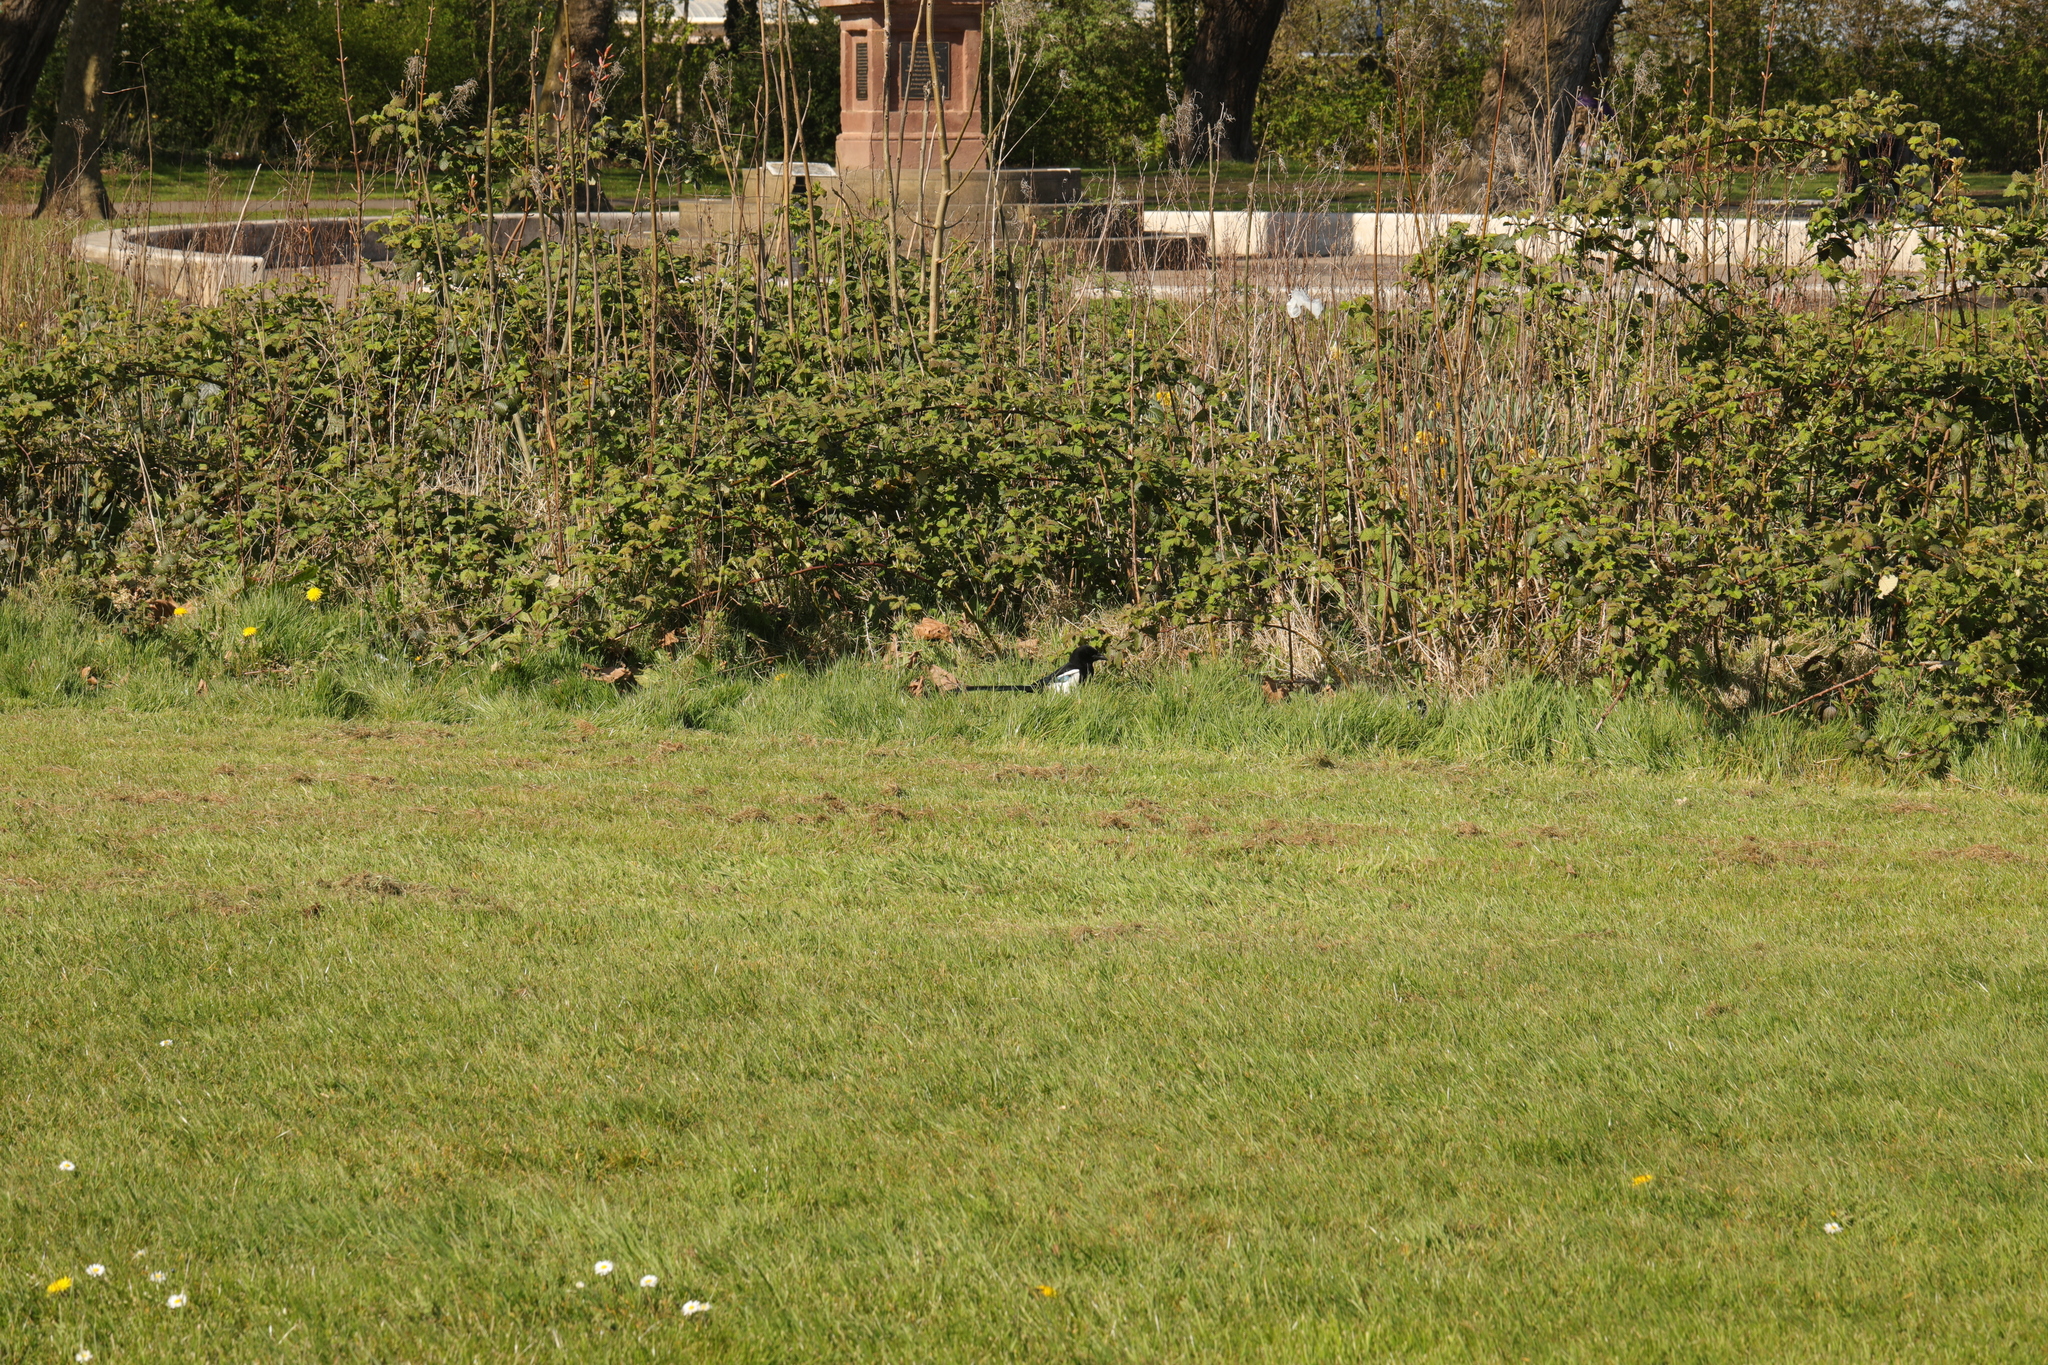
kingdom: Animalia
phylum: Chordata
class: Aves
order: Passeriformes
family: Corvidae
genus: Pica
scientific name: Pica pica
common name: Eurasian magpie
